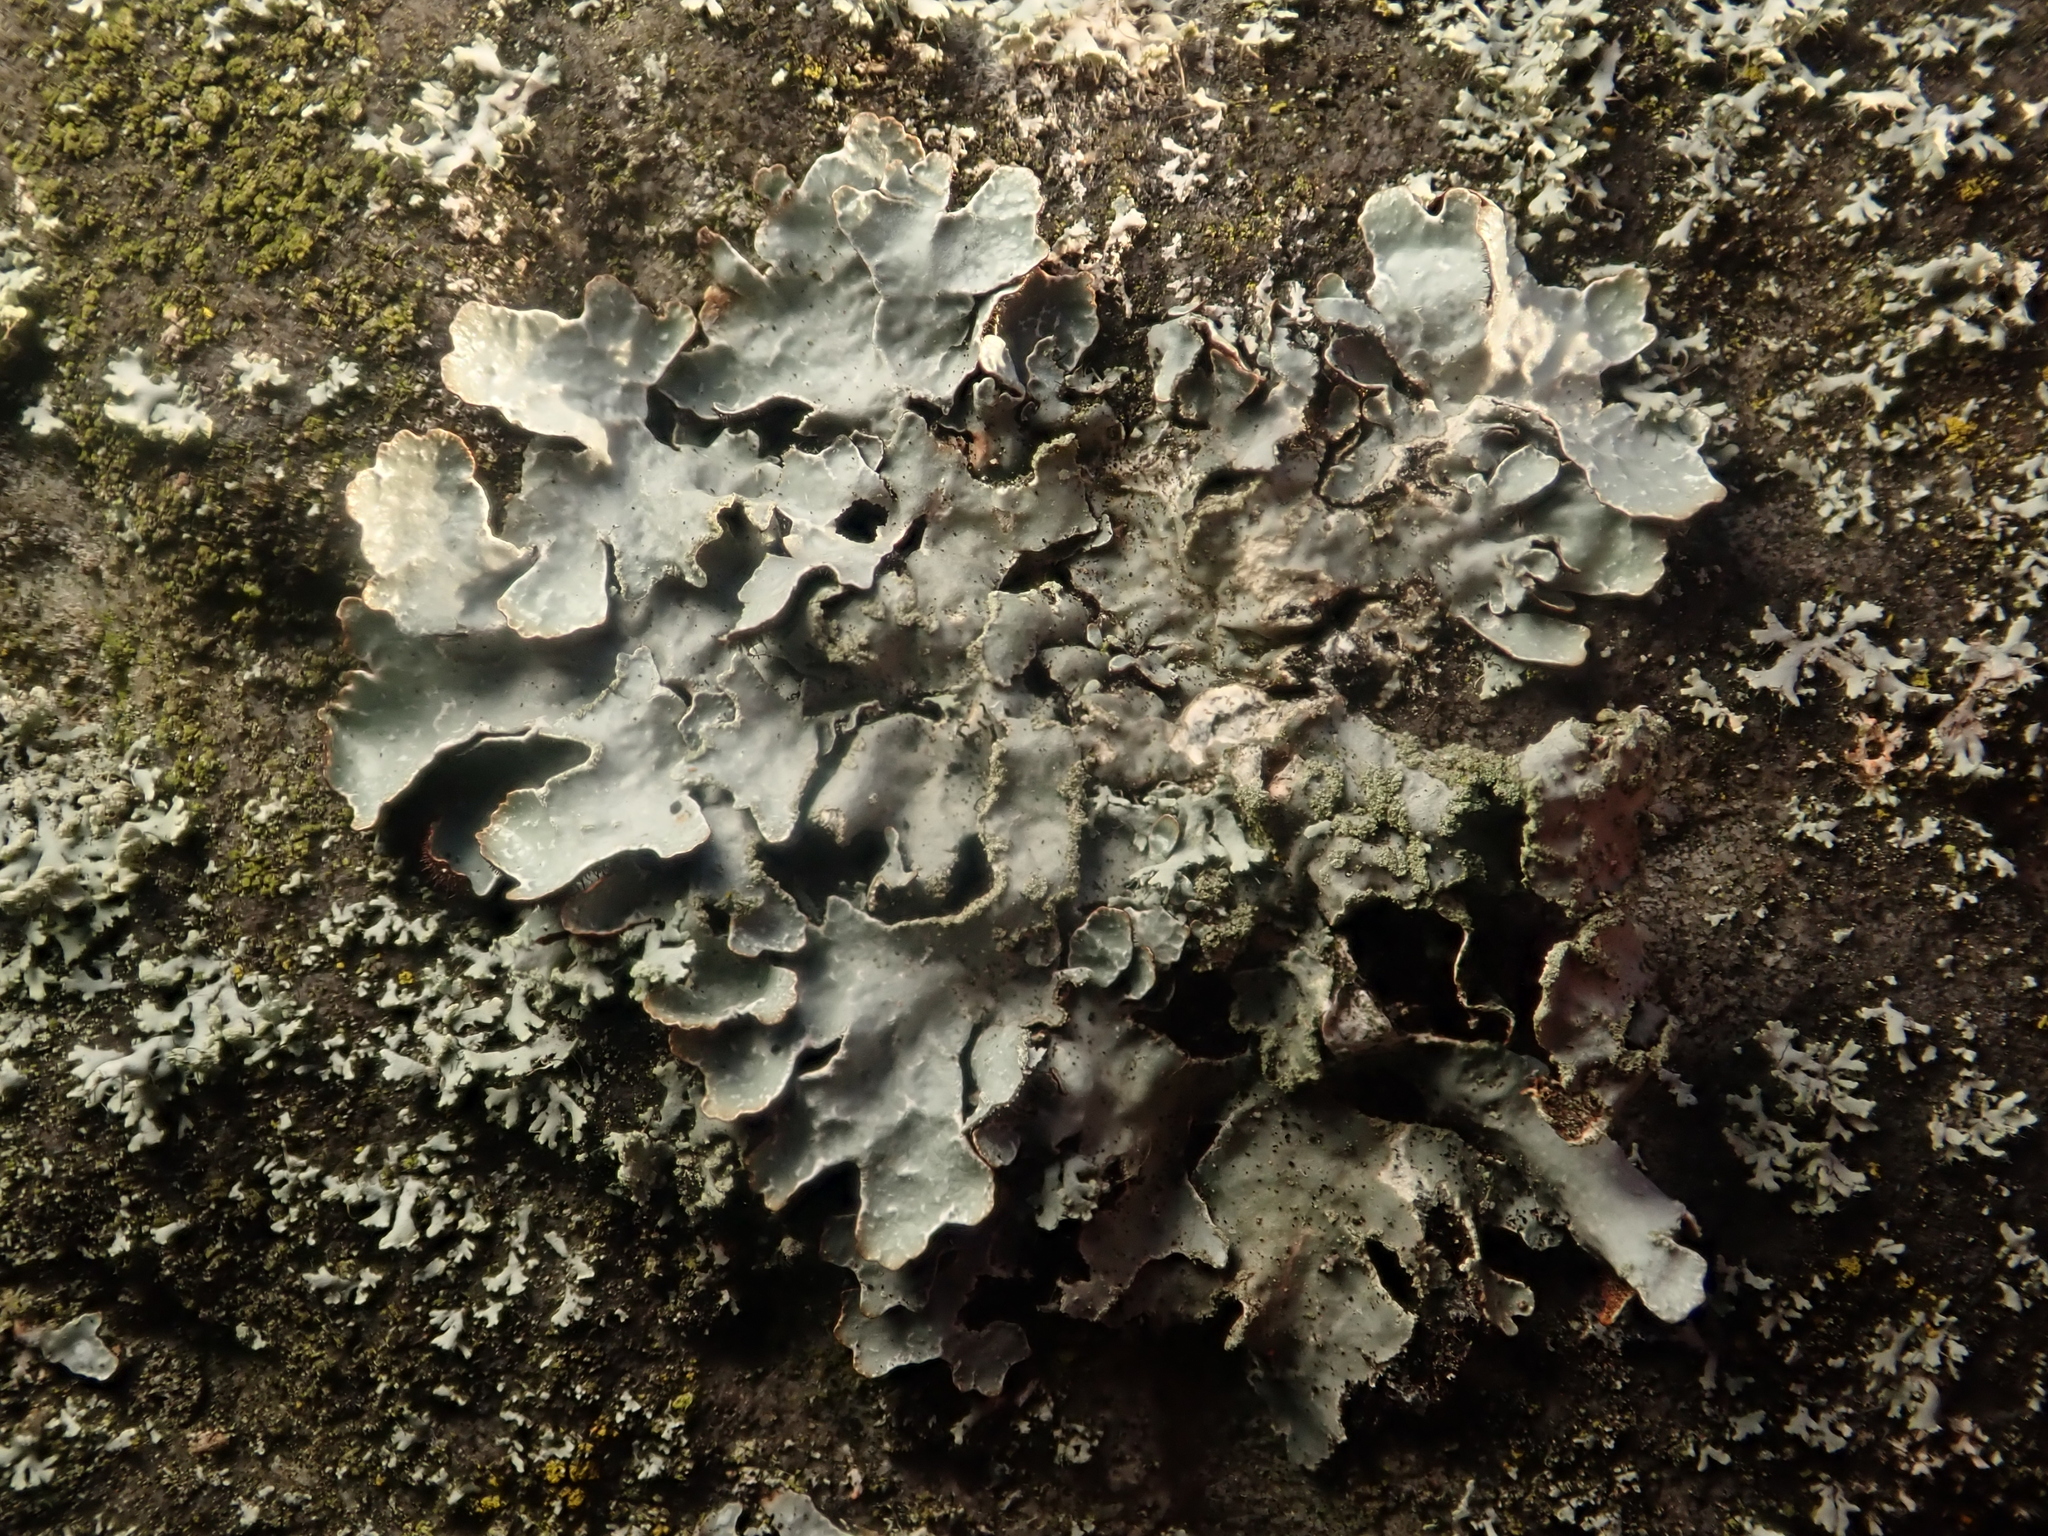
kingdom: Fungi
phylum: Ascomycota
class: Lecanoromycetes
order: Lecanorales
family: Parmeliaceae
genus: Parmelia
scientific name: Parmelia sulcata
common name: Netted shield lichen
